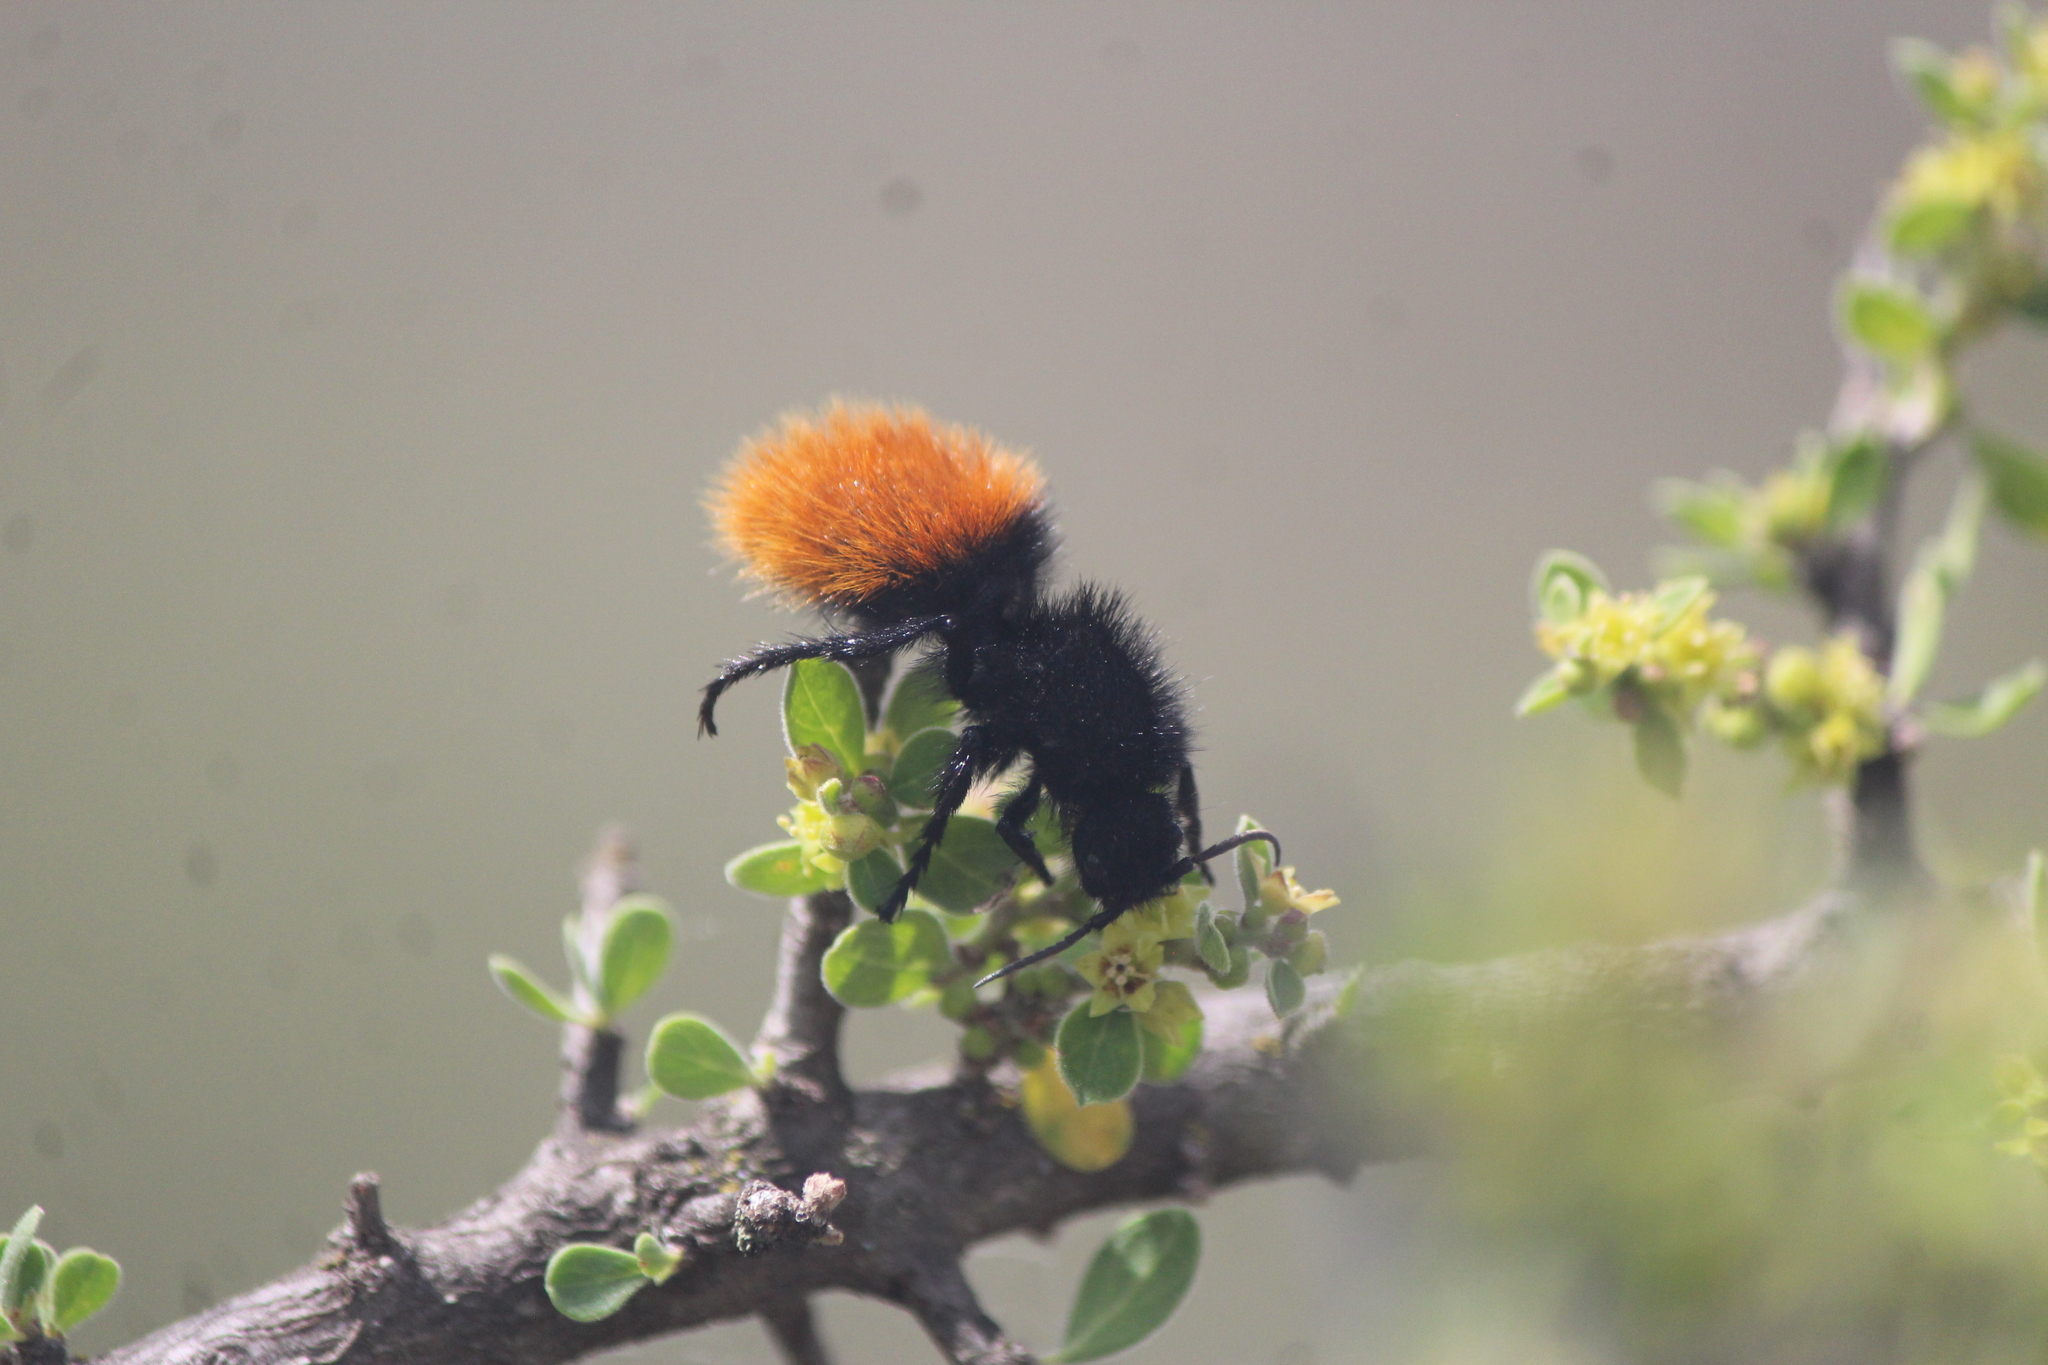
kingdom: Animalia
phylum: Arthropoda
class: Insecta
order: Hymenoptera
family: Mutillidae
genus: Dasymutilla
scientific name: Dasymutilla
